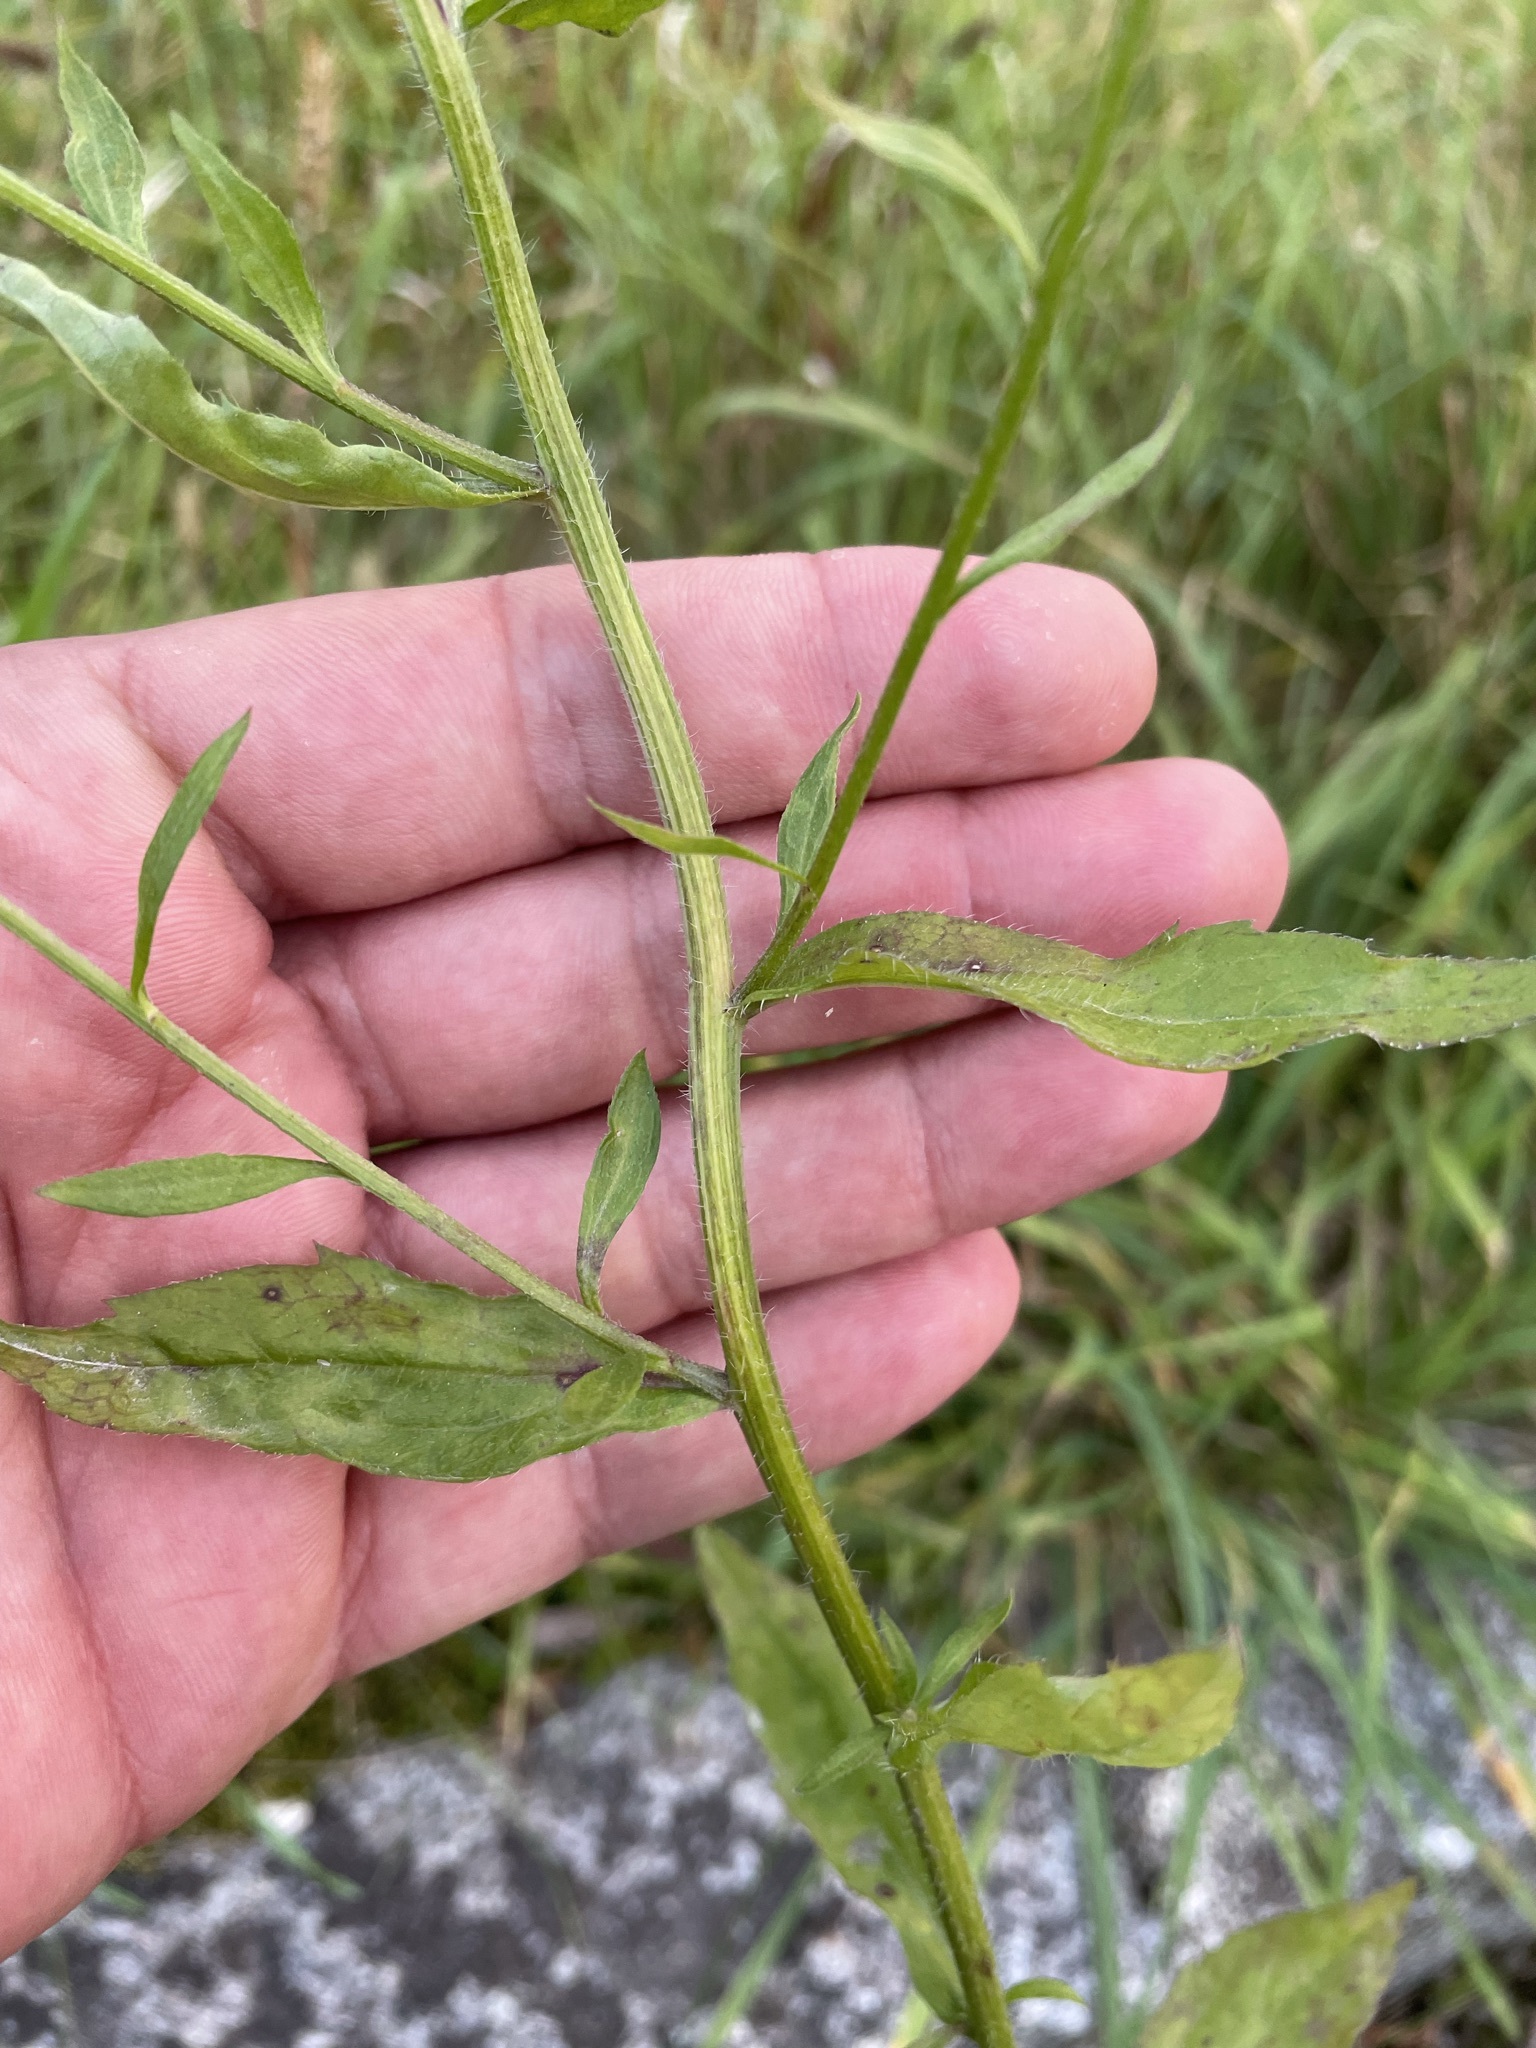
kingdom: Plantae
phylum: Tracheophyta
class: Magnoliopsida
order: Asterales
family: Asteraceae
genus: Erigeron
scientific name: Erigeron annuus
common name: Tall fleabane
